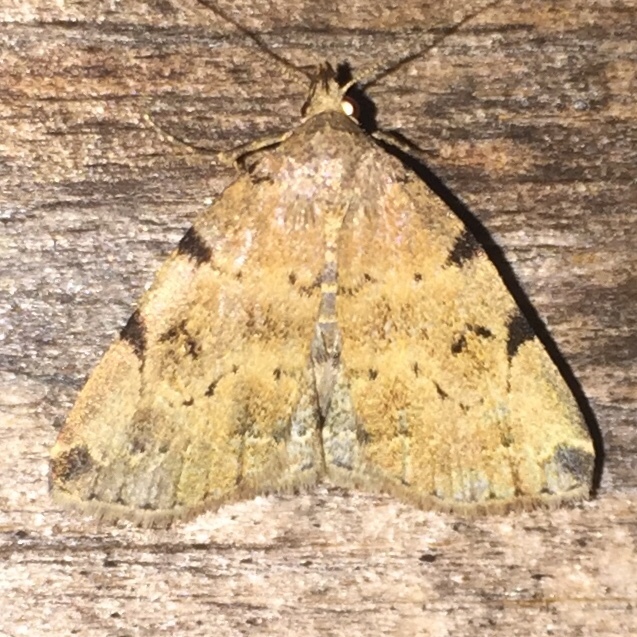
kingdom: Animalia
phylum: Arthropoda
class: Insecta
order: Lepidoptera
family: Erebidae
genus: Zanclognatha
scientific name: Zanclognatha lituralis
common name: Lettered fan-foot
